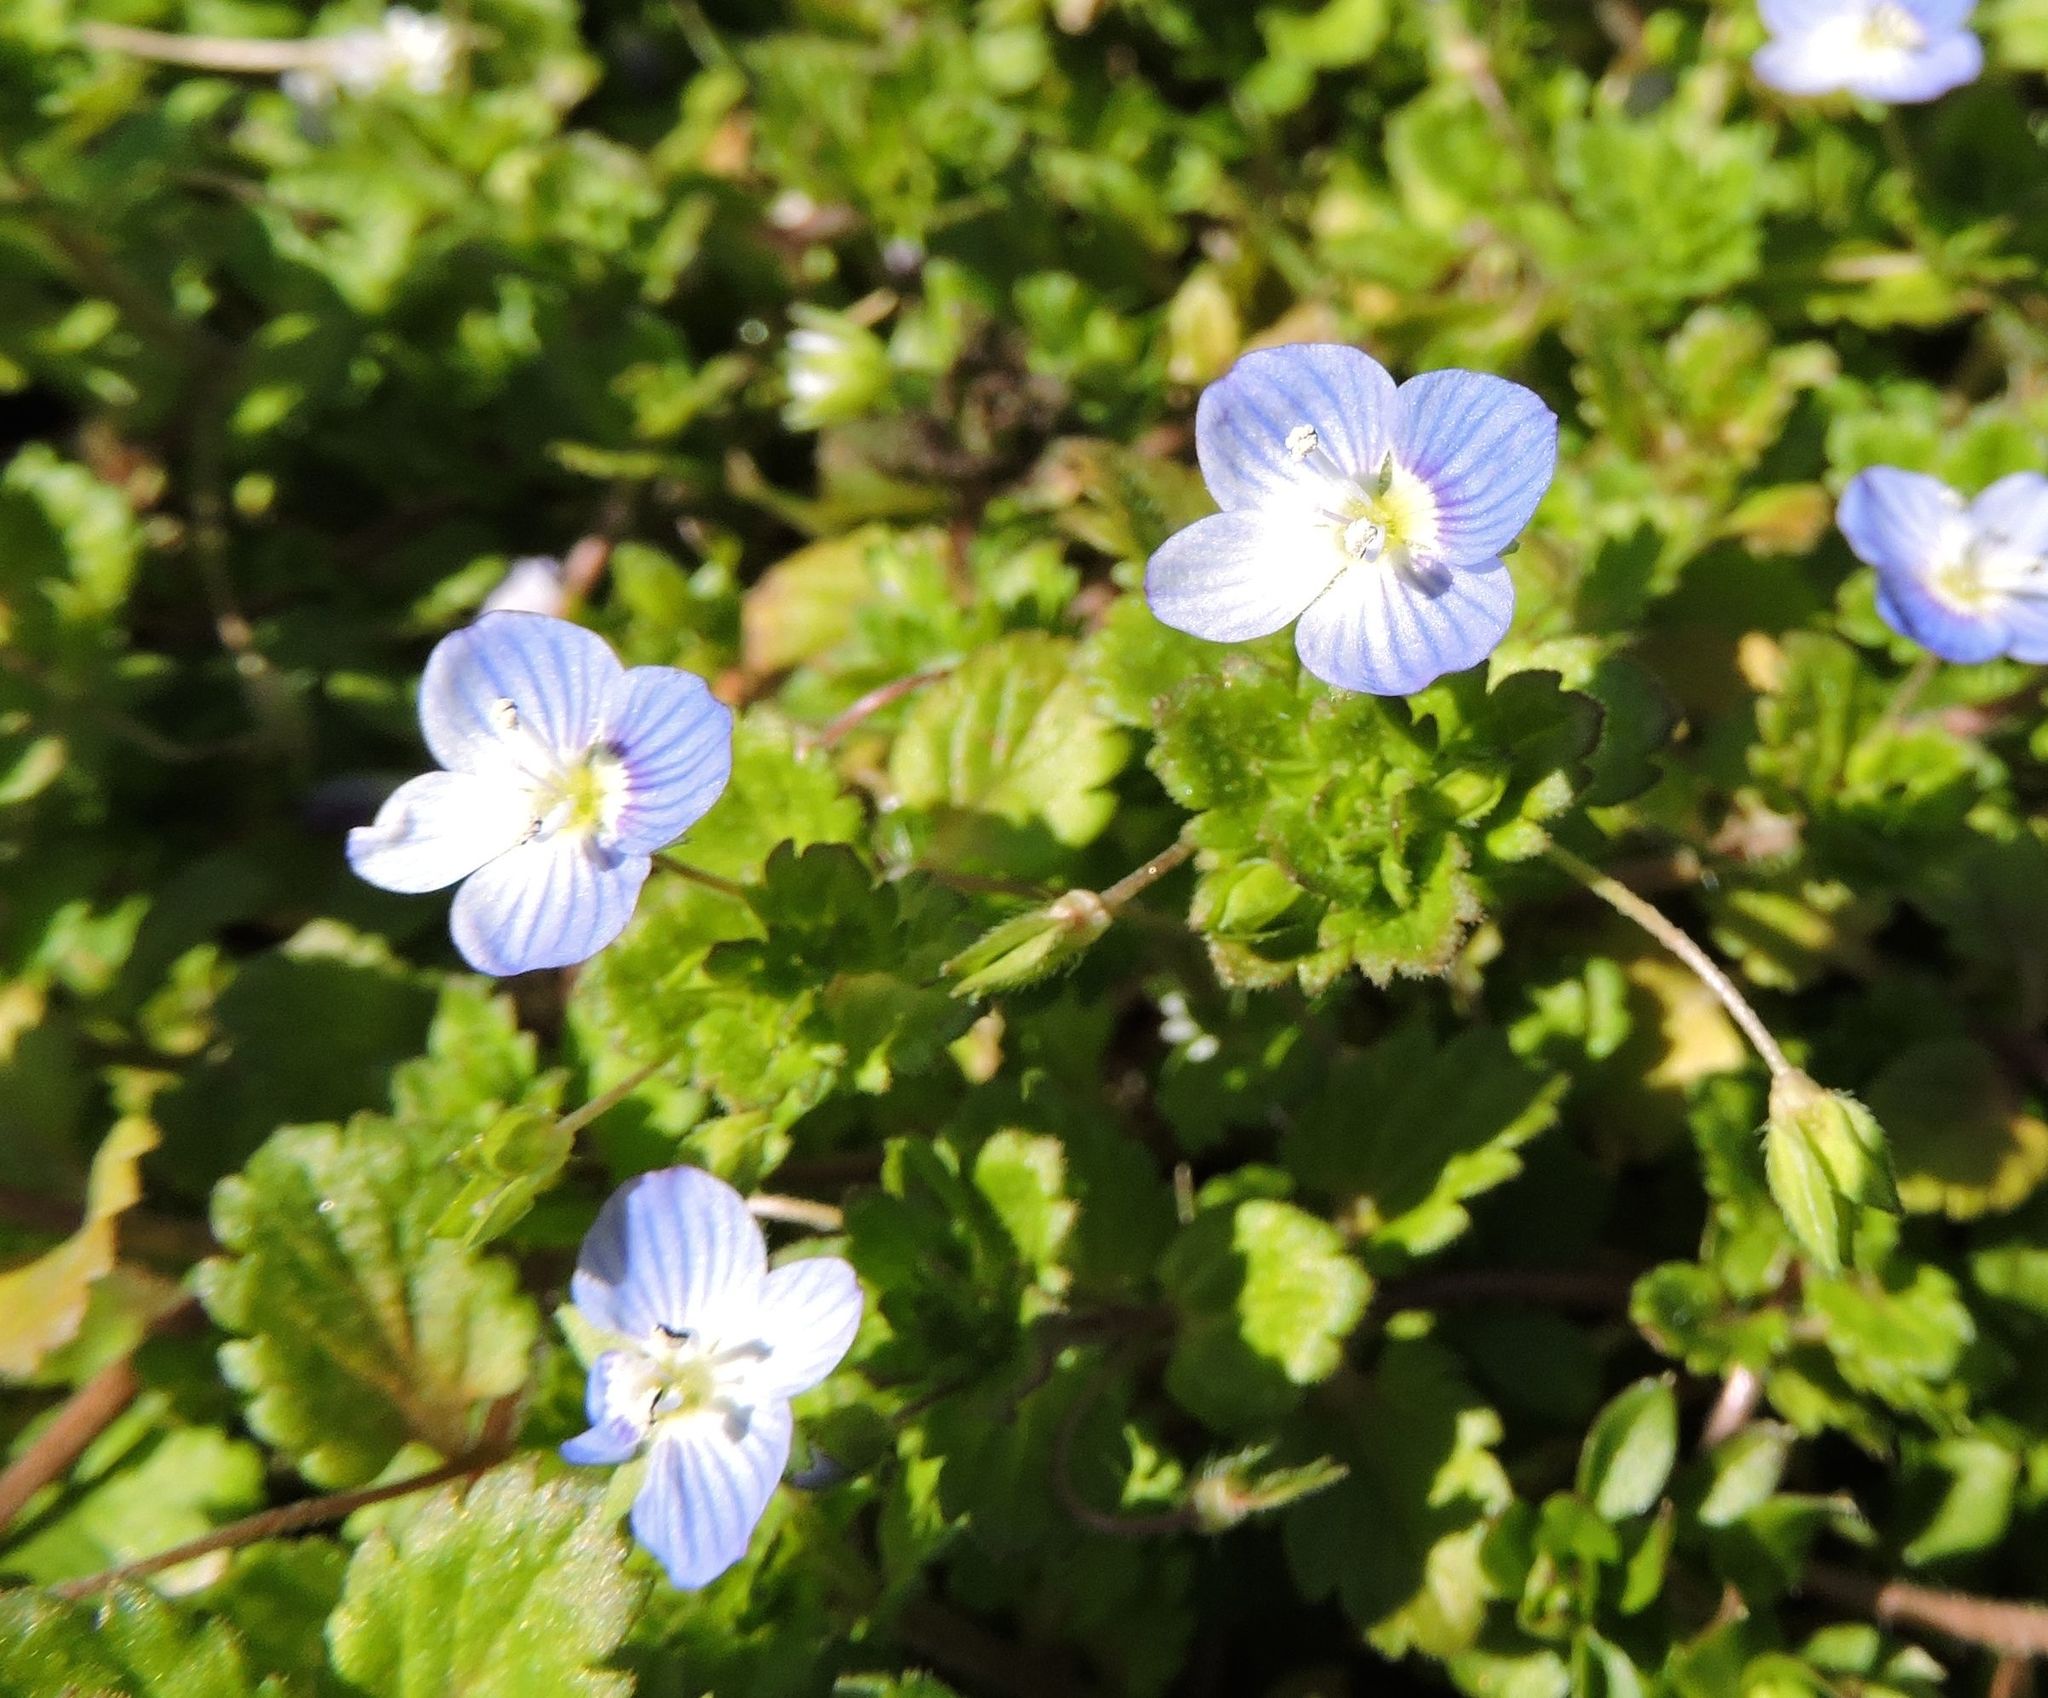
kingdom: Plantae
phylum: Tracheophyta
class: Magnoliopsida
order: Lamiales
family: Plantaginaceae
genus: Veronica
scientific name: Veronica persica
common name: Common field-speedwell
